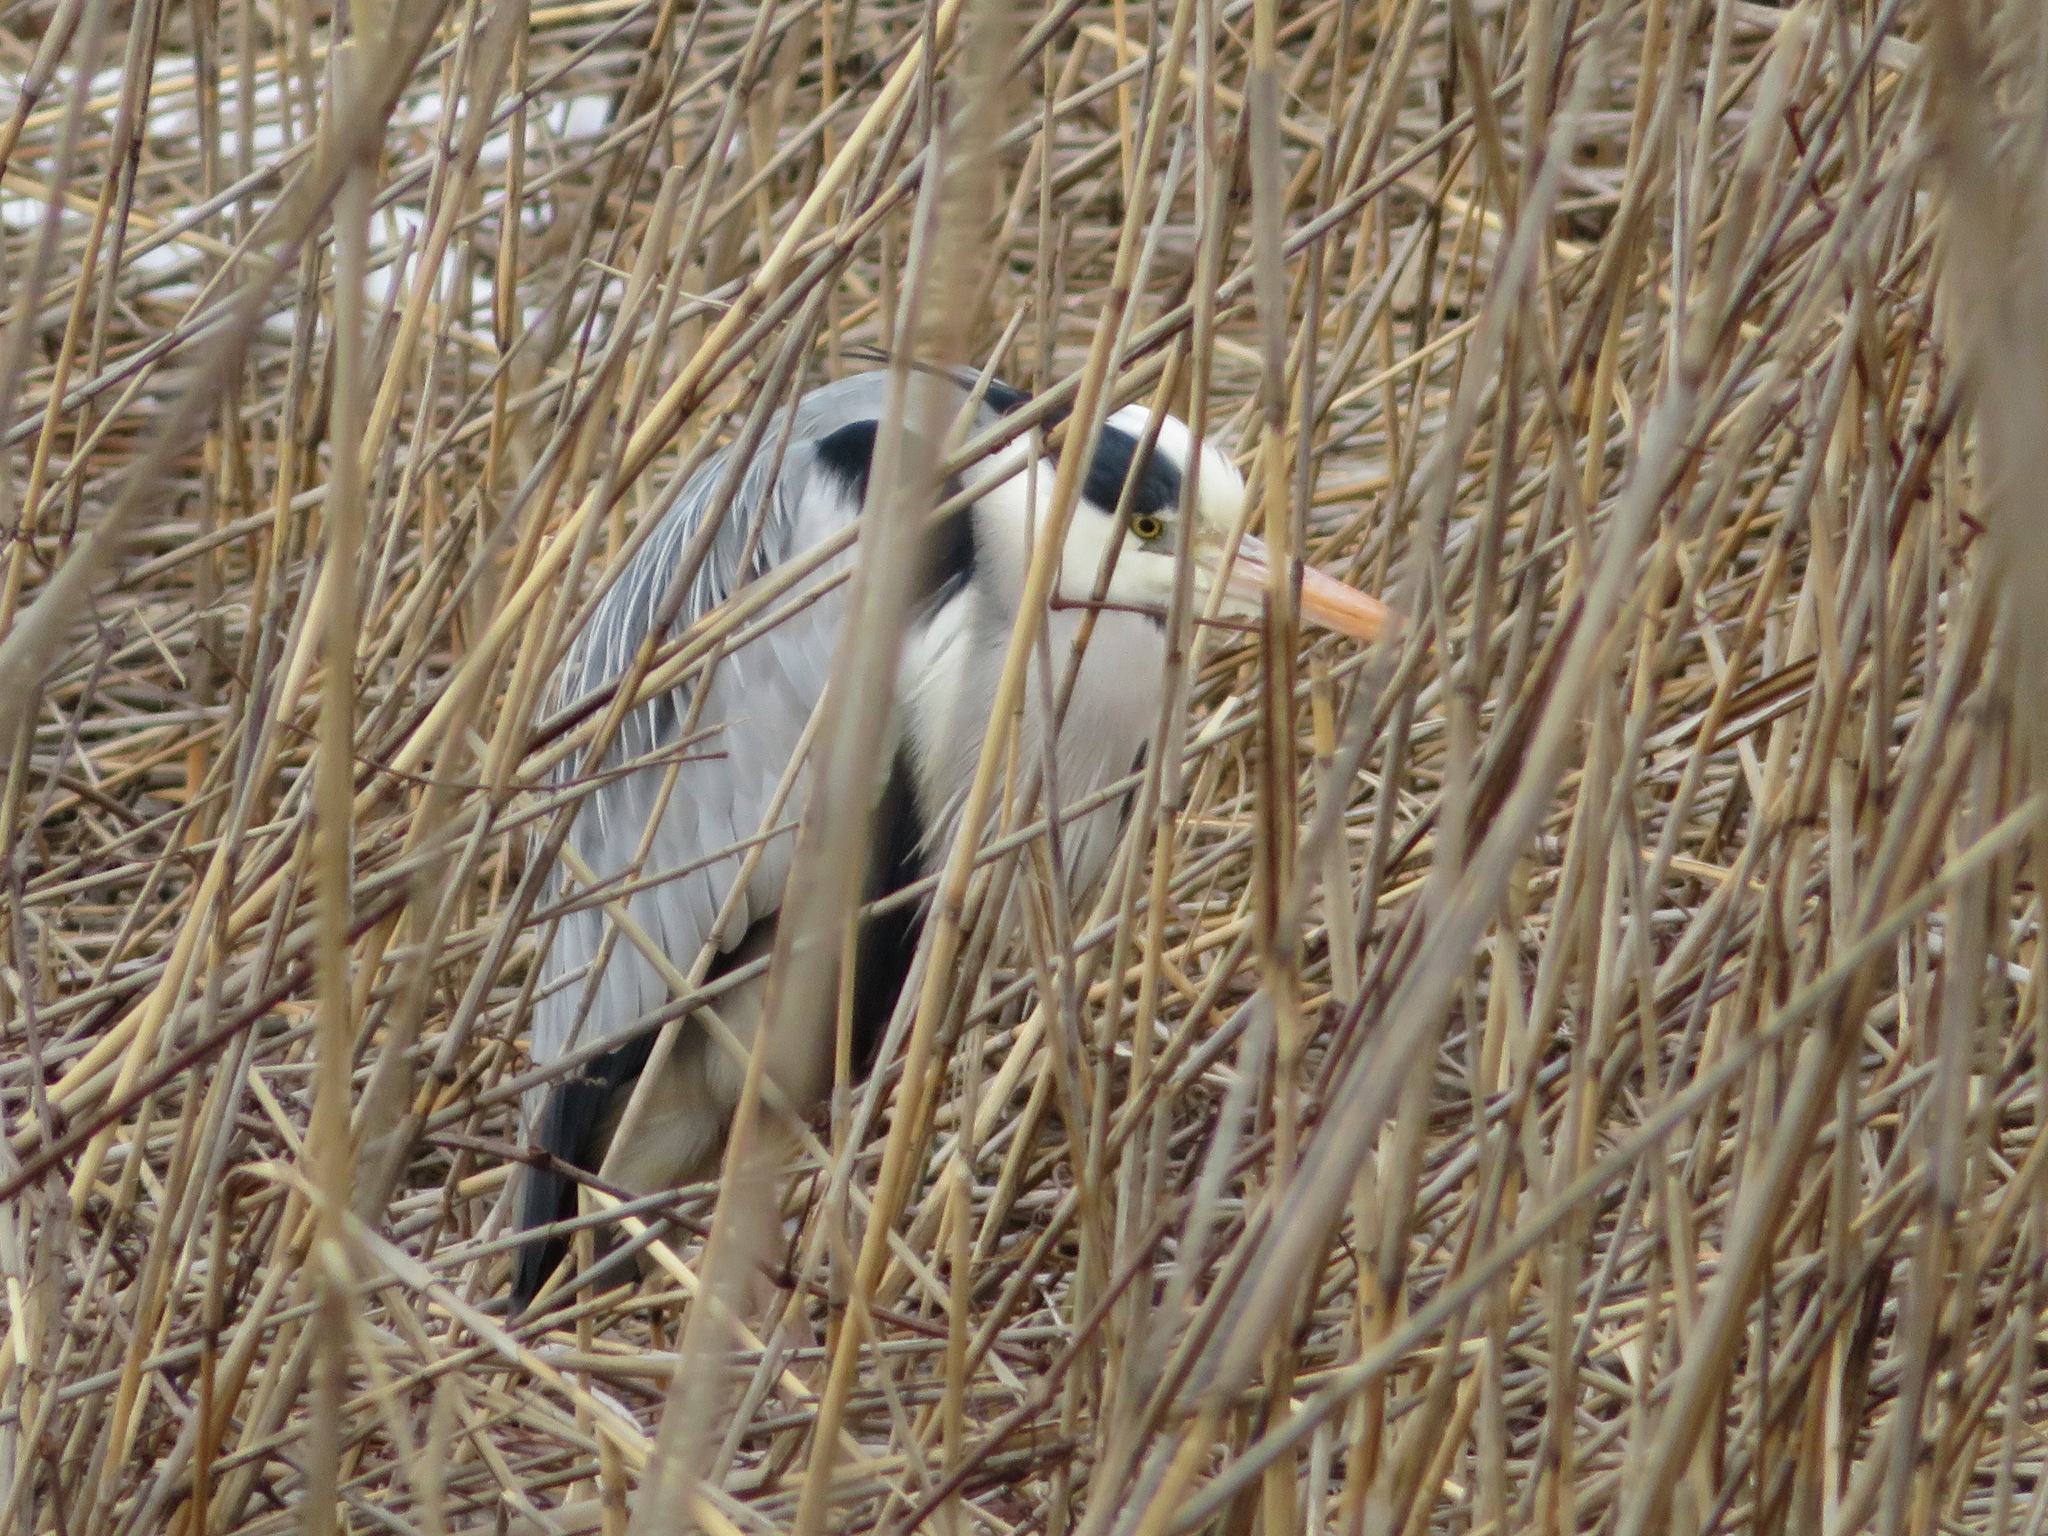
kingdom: Animalia
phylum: Chordata
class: Aves
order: Pelecaniformes
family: Ardeidae
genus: Ardea
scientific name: Ardea cinerea
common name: Grey heron
